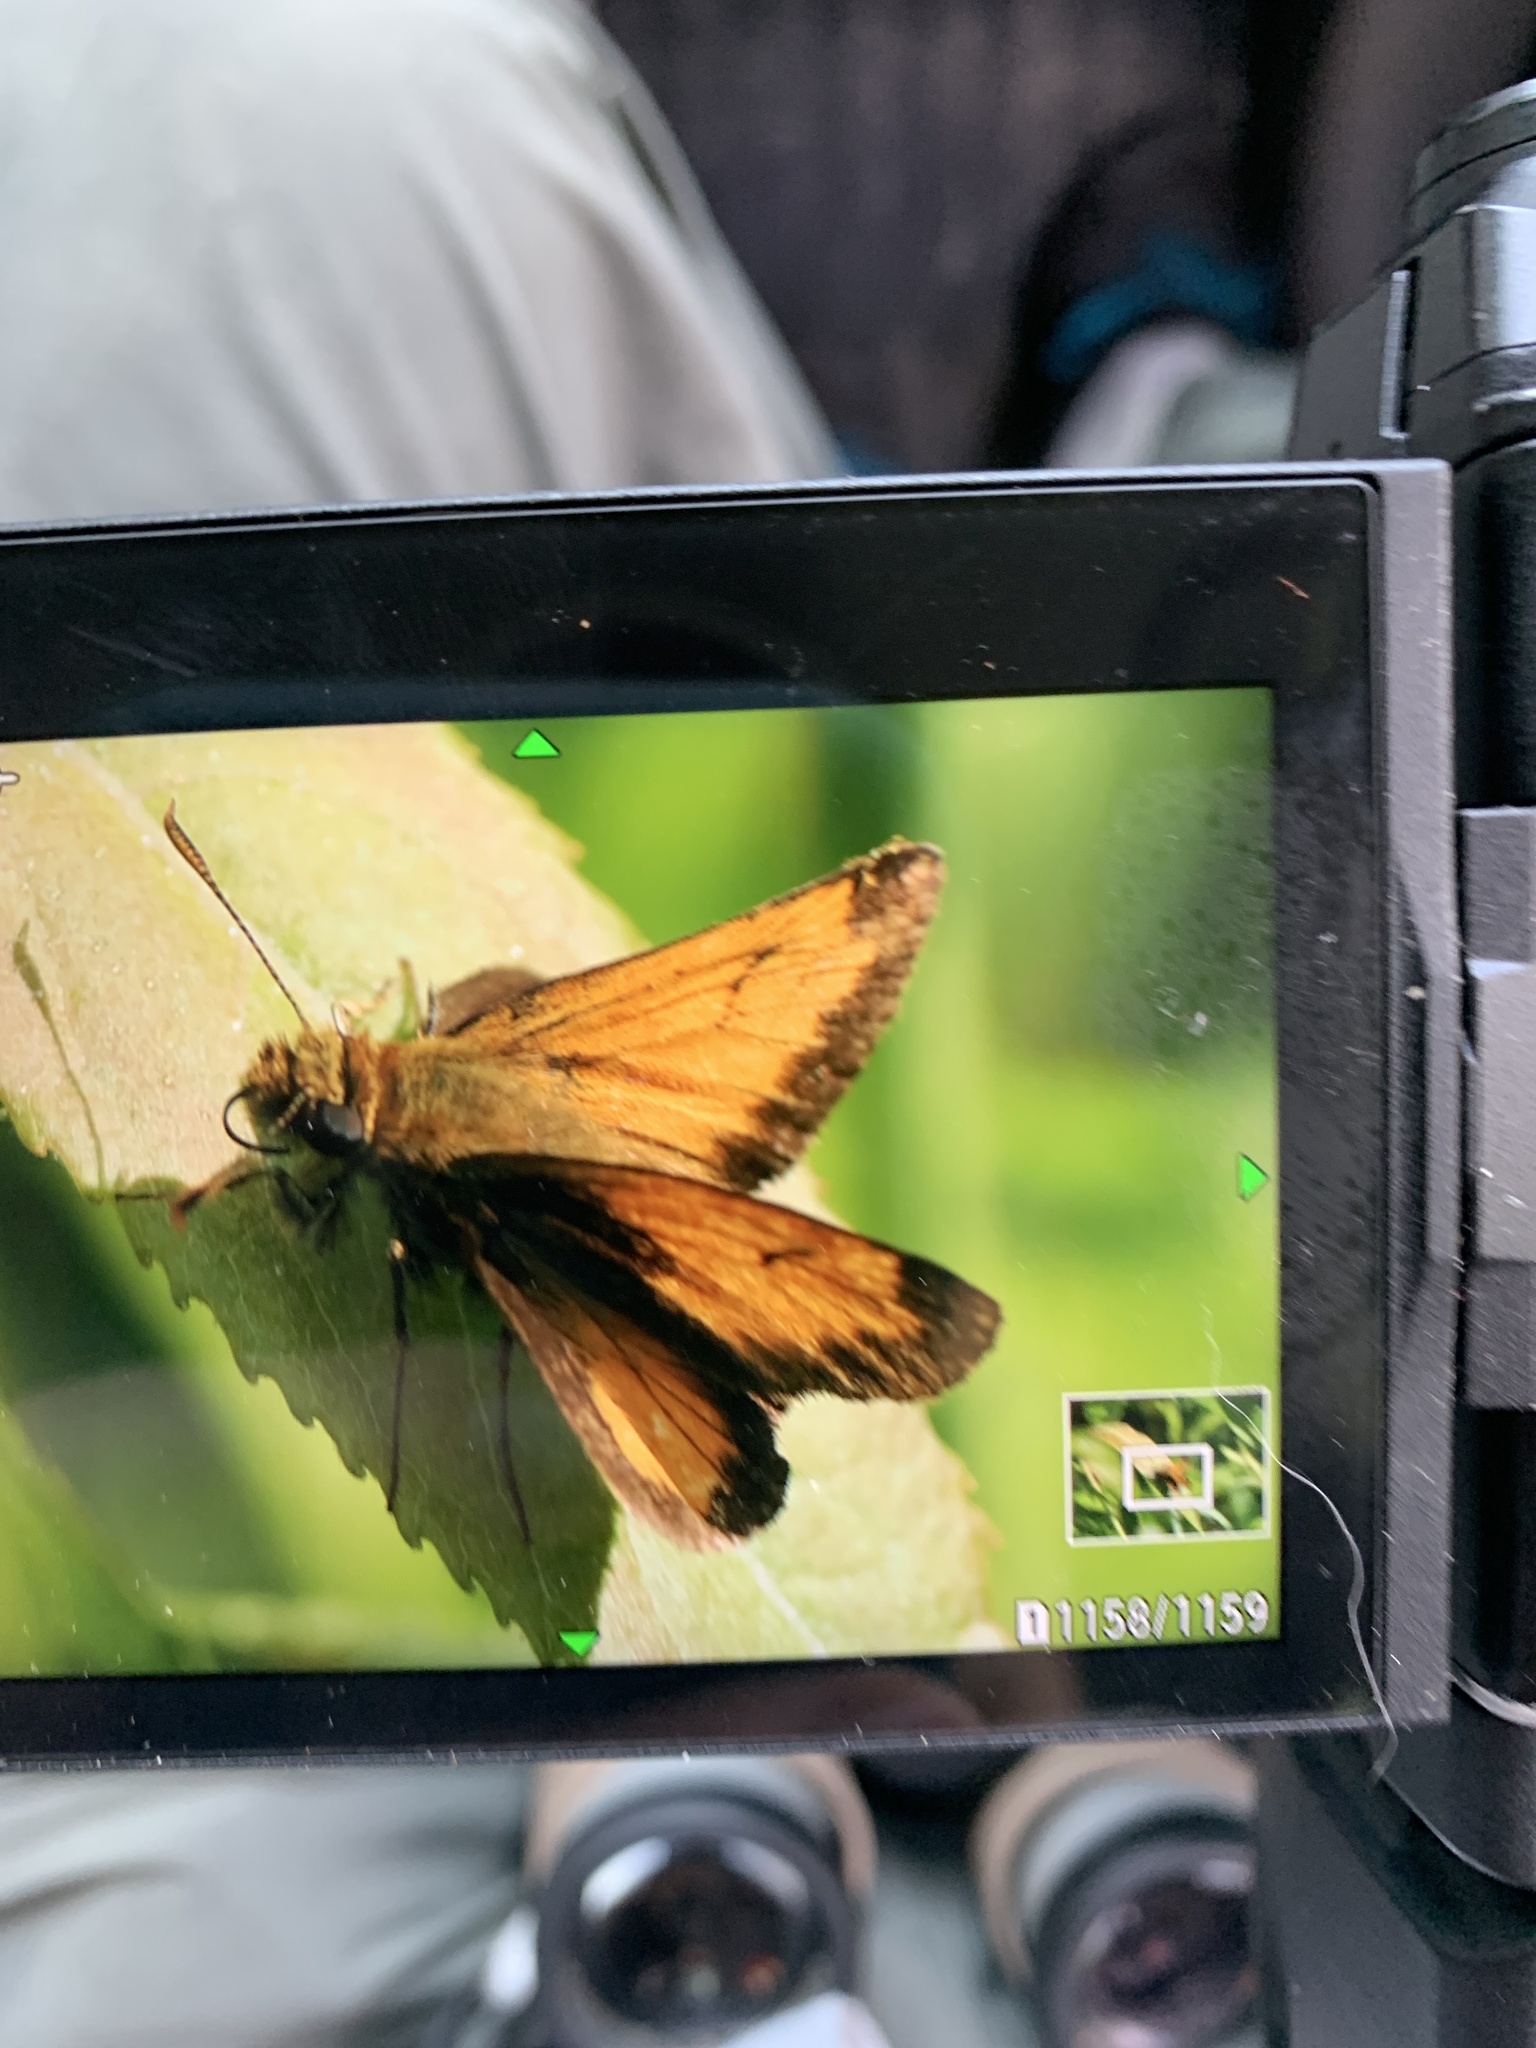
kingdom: Animalia
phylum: Arthropoda
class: Insecta
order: Lepidoptera
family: Hesperiidae
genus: Lon
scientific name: Lon hobomok
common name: Hobomok skipper
